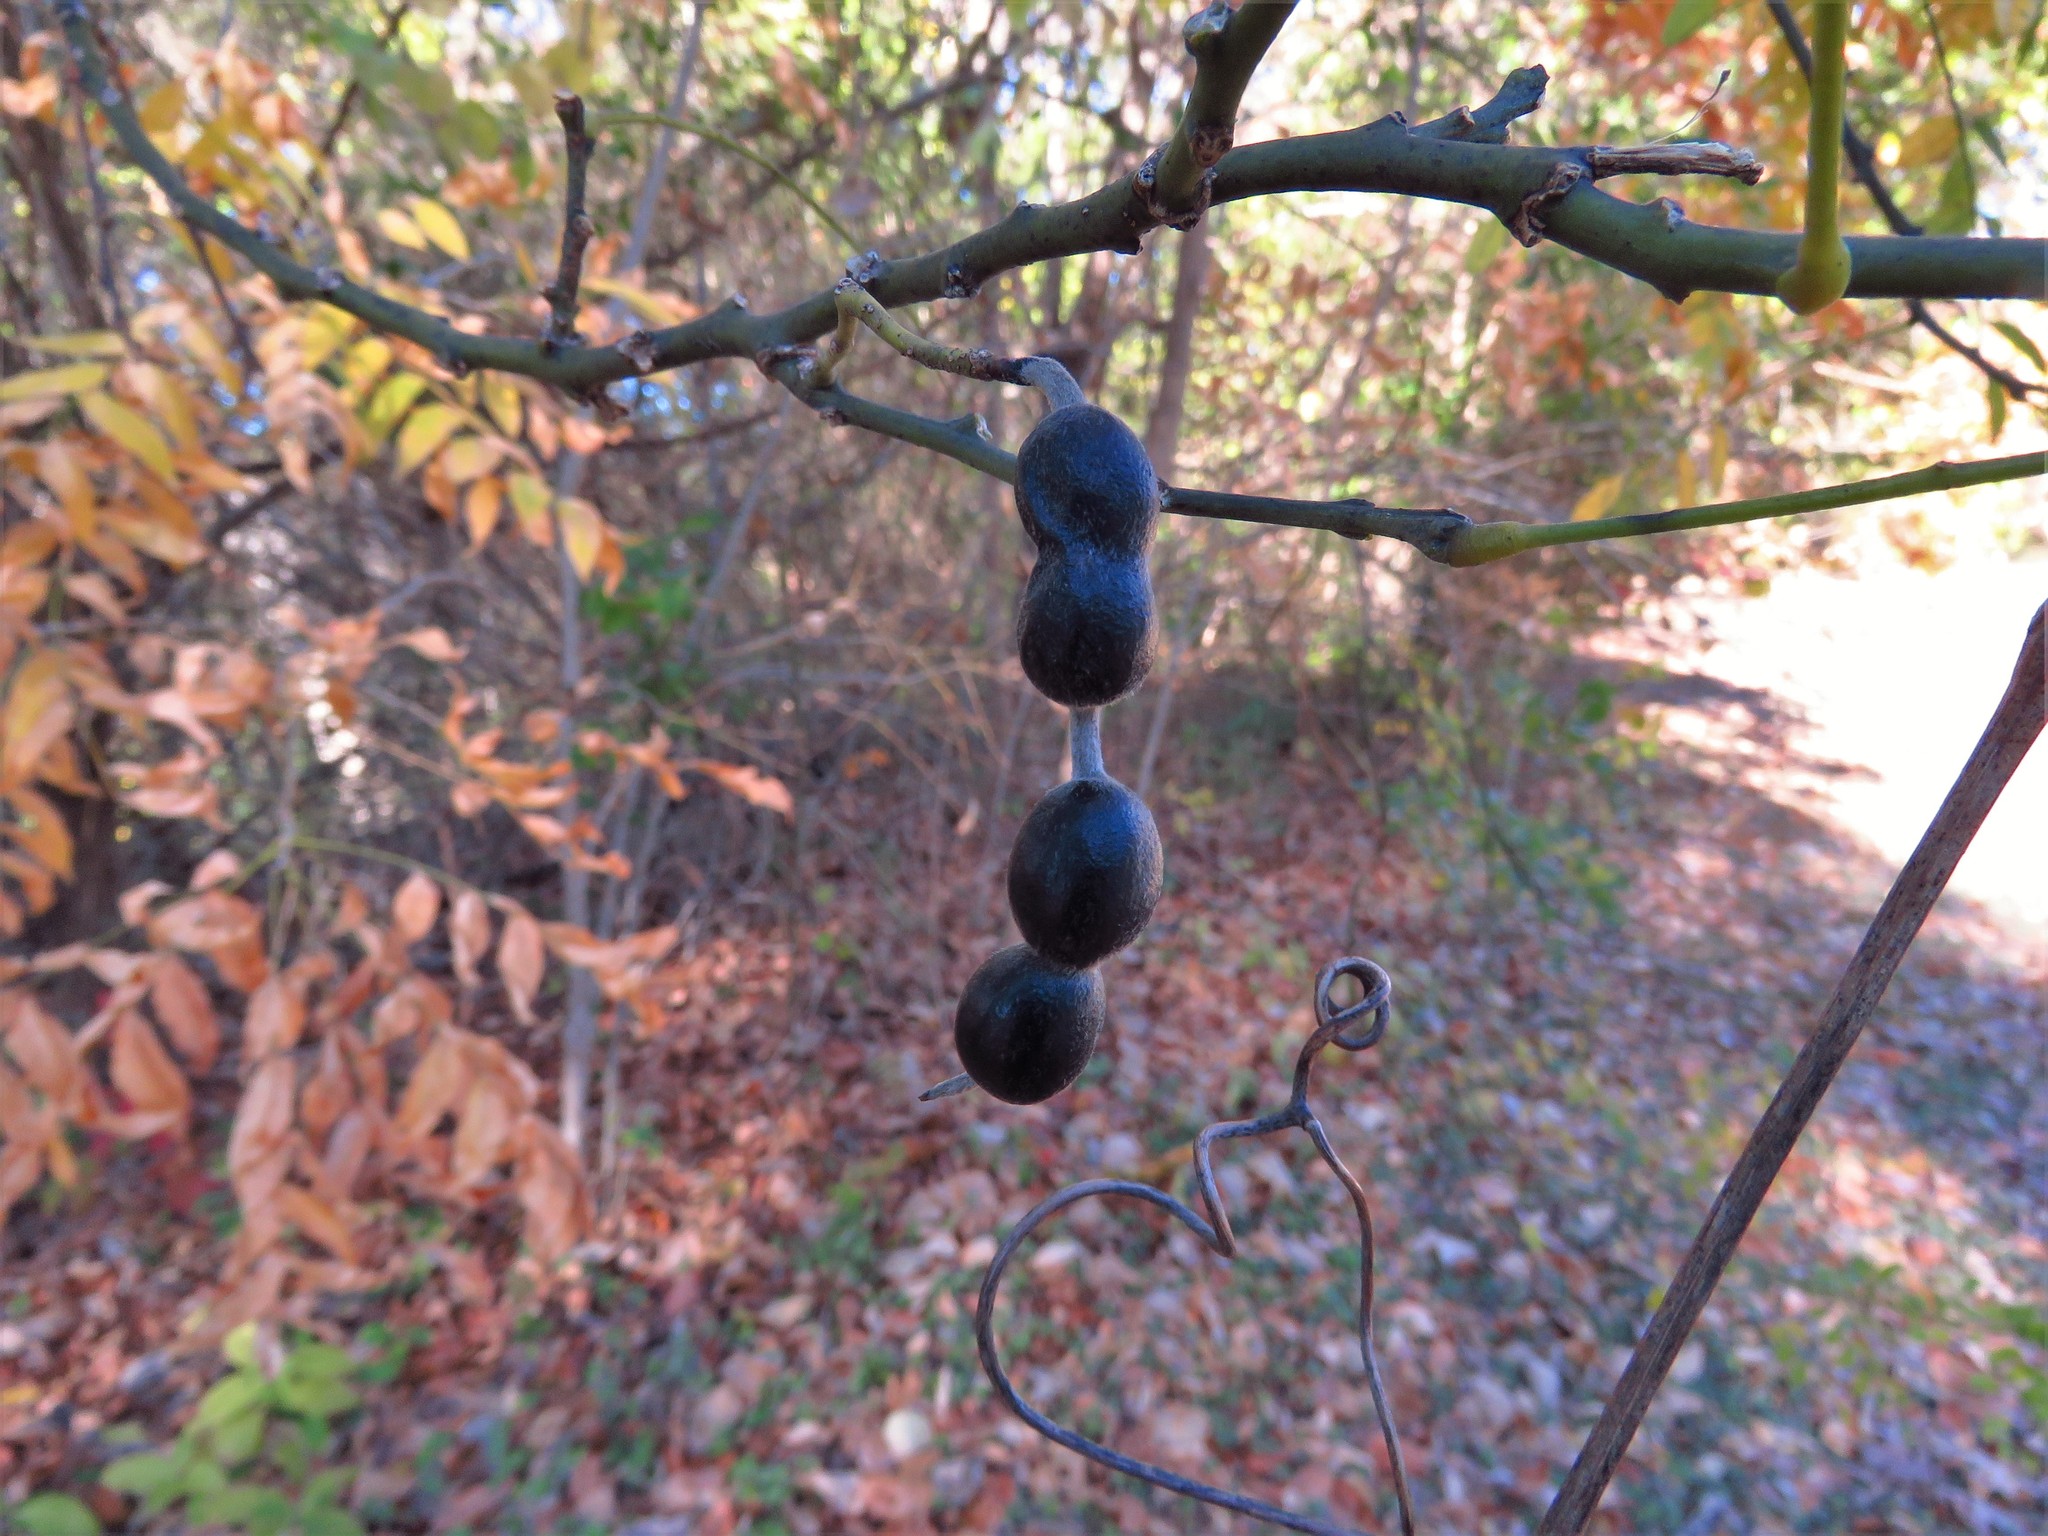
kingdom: Plantae
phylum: Tracheophyta
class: Magnoliopsida
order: Fabales
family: Fabaceae
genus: Styphnolobium
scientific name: Styphnolobium affine
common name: Texas sophora
